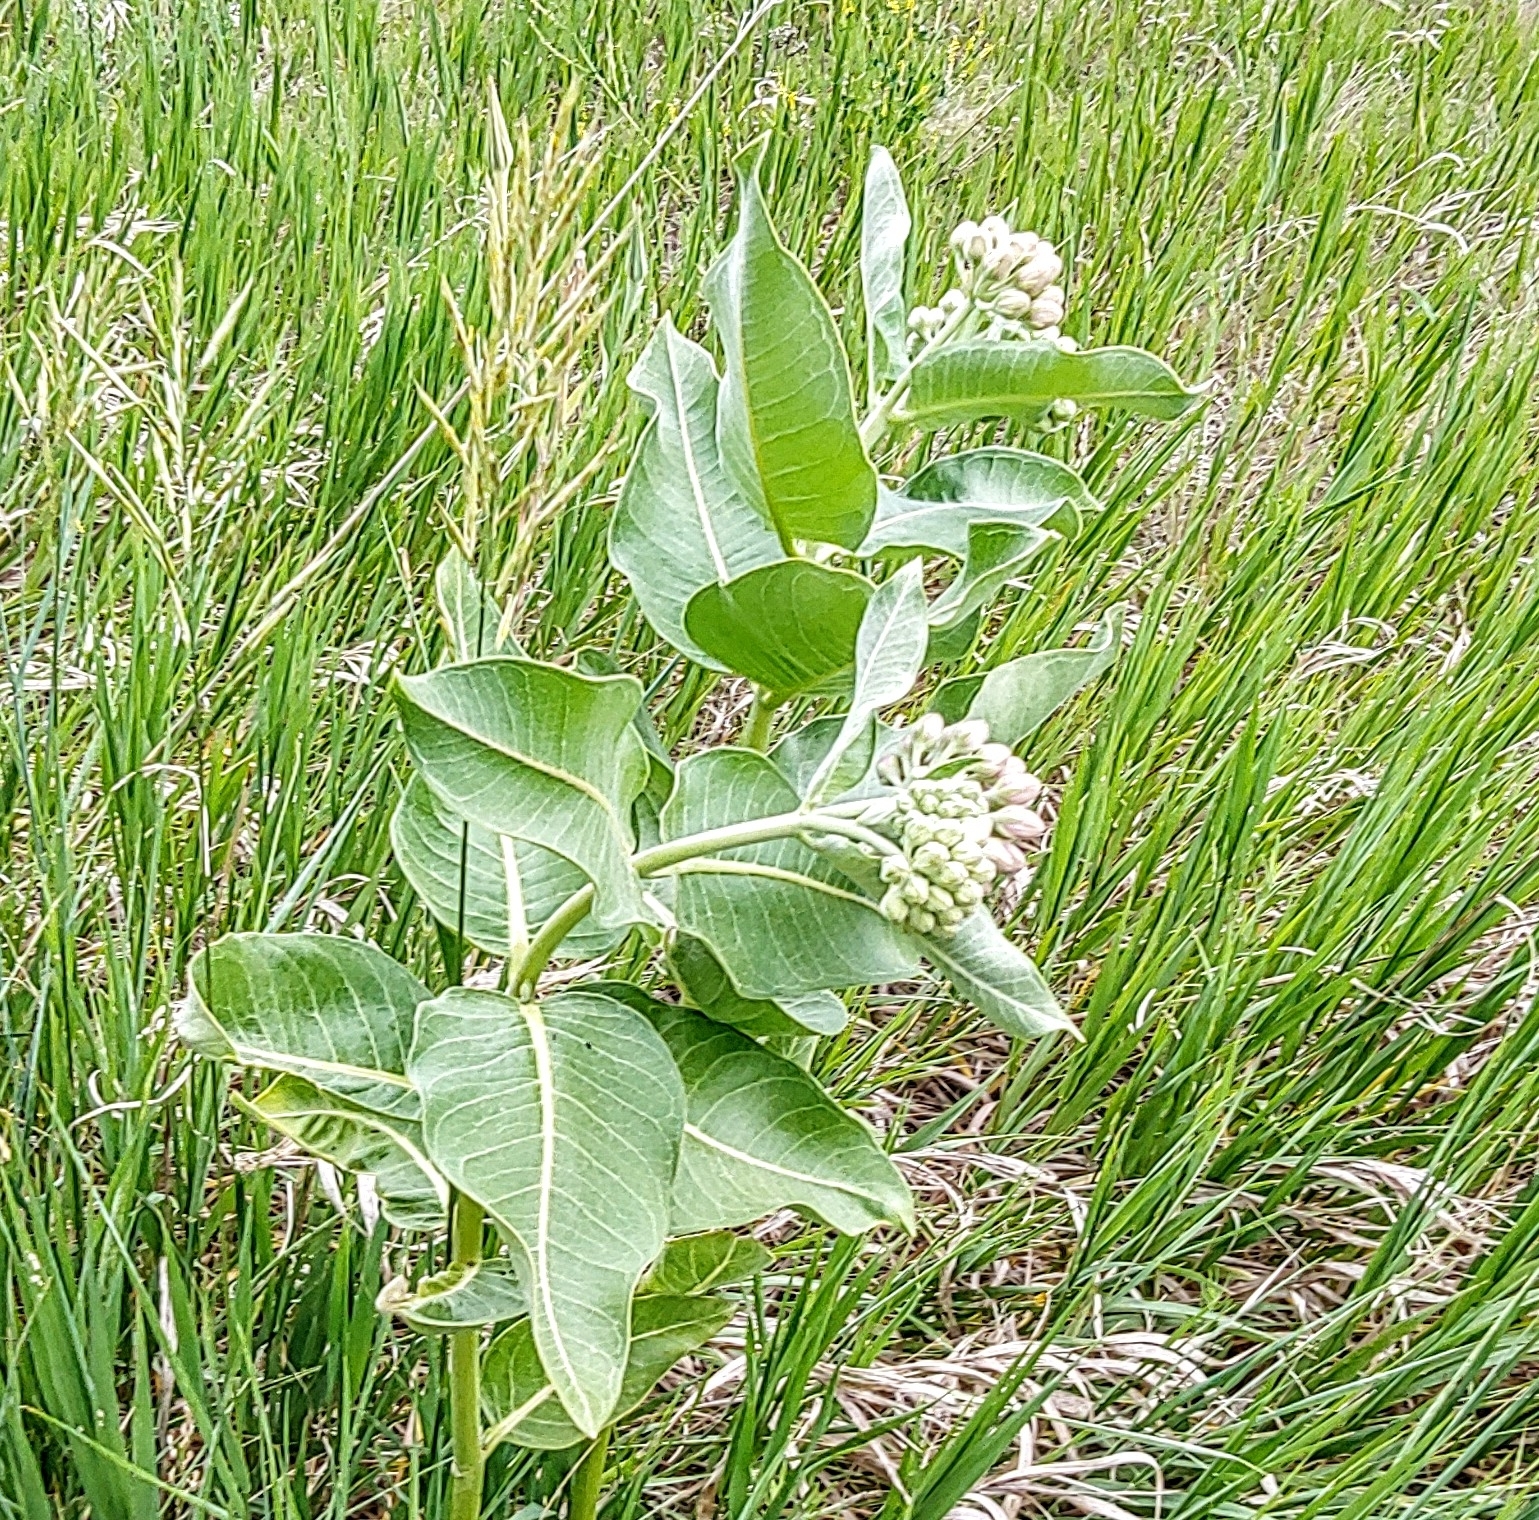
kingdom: Plantae
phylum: Tracheophyta
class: Magnoliopsida
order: Gentianales
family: Apocynaceae
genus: Asclepias
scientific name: Asclepias speciosa
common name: Showy milkweed
